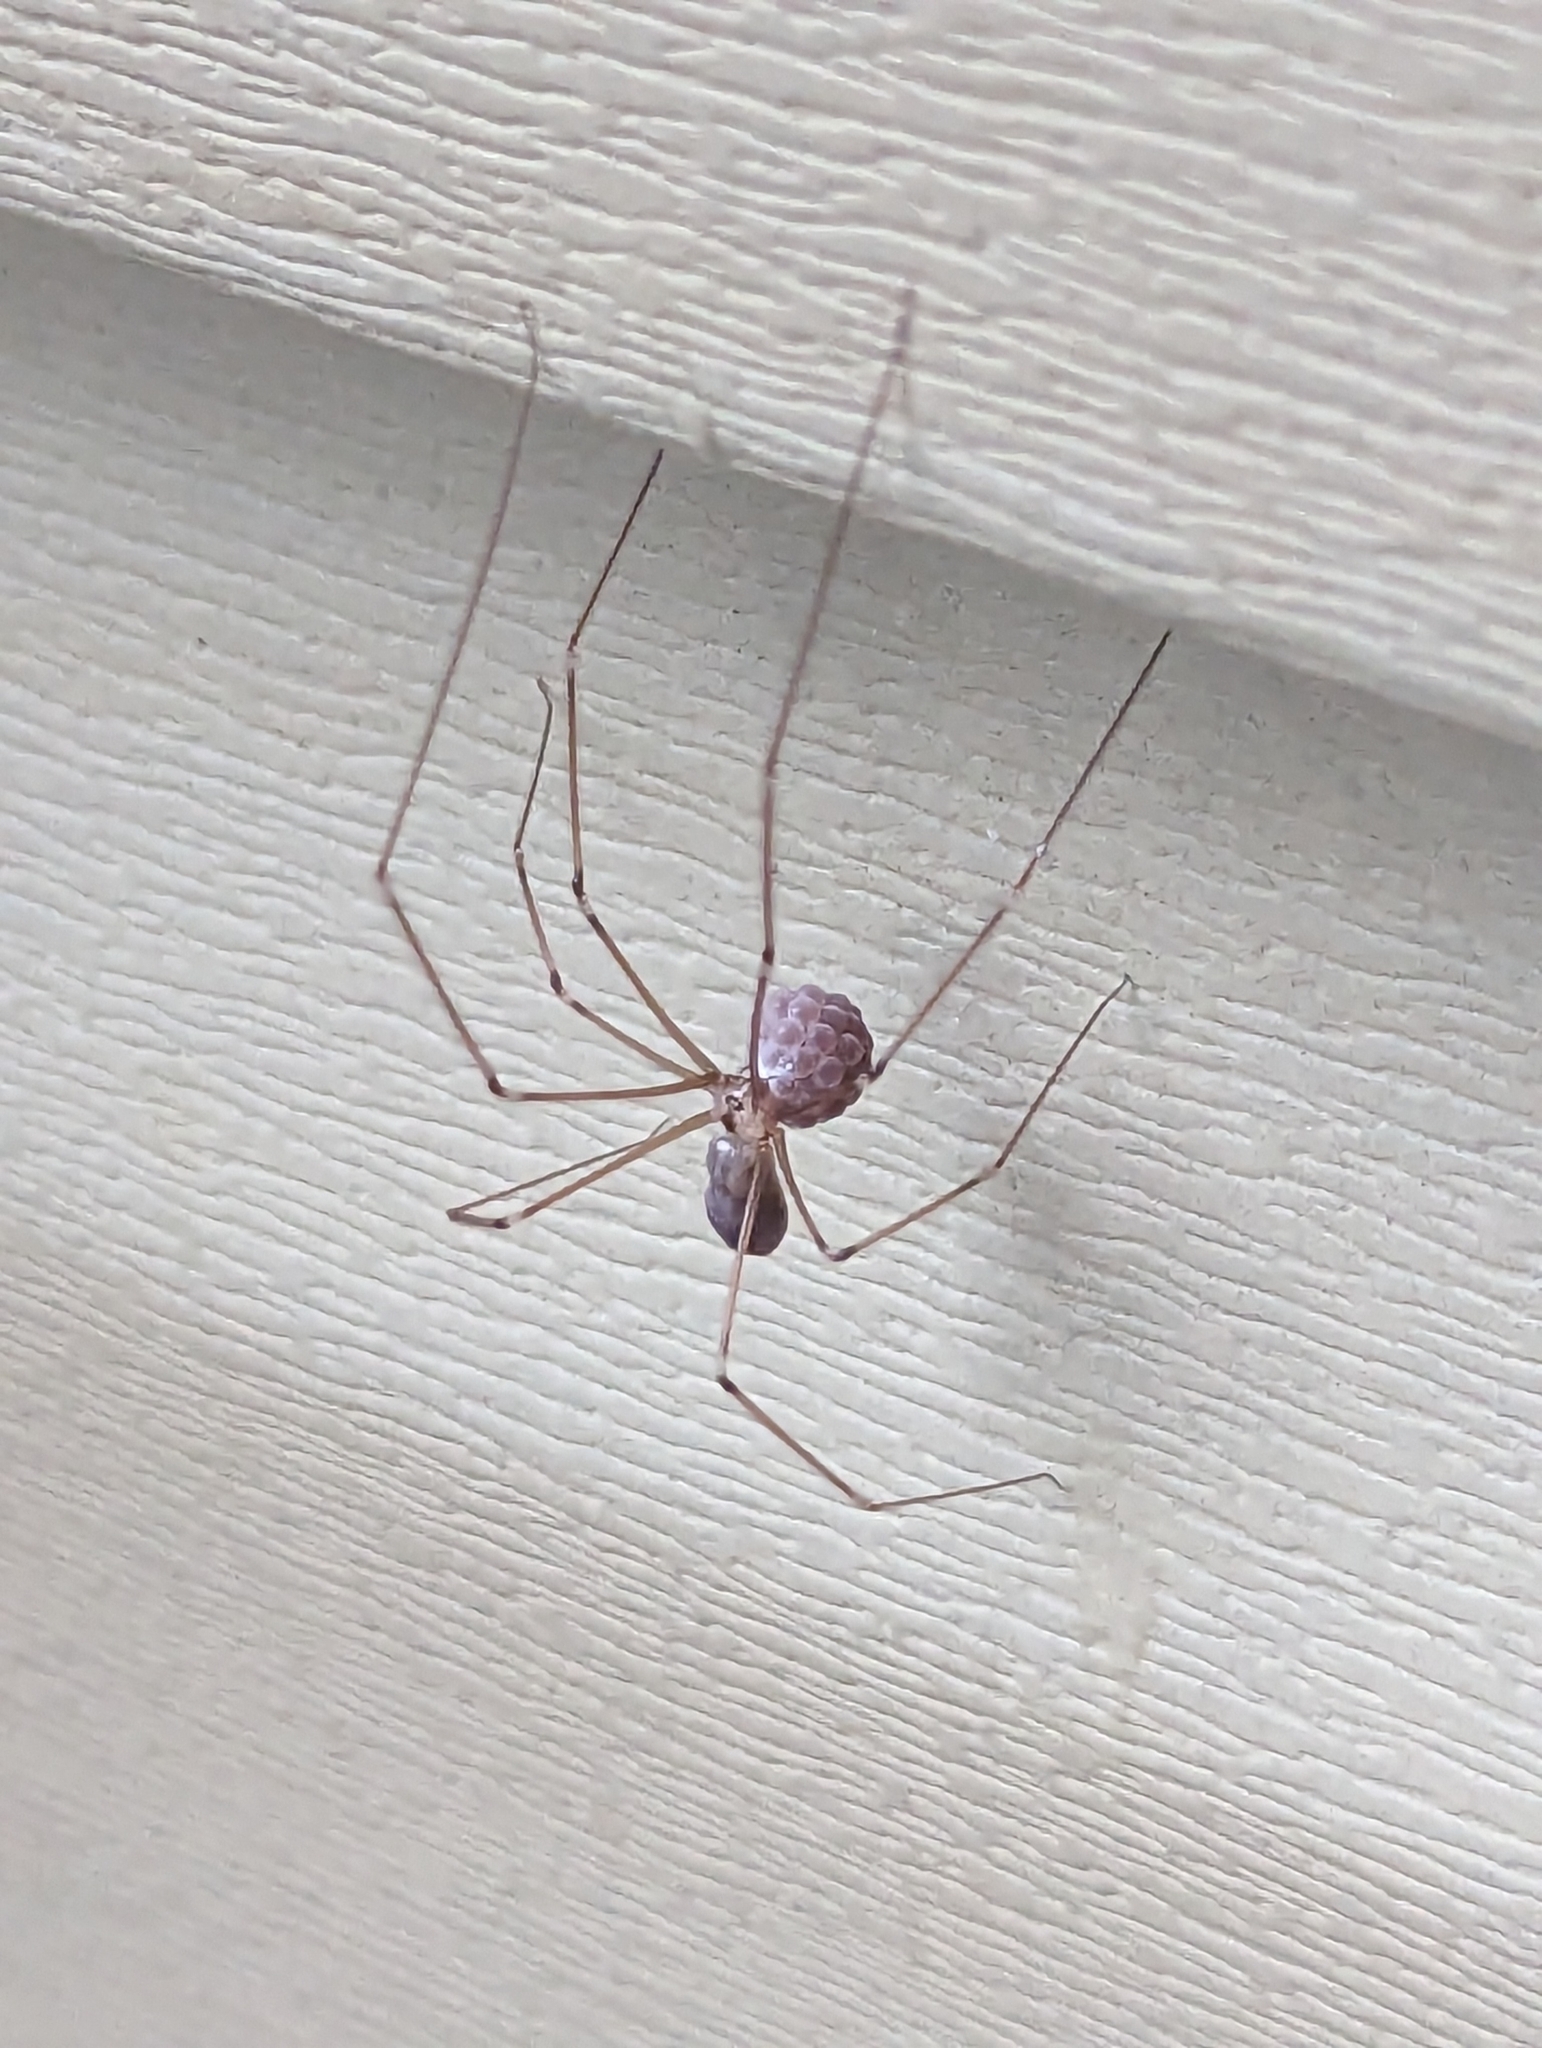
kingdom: Animalia
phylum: Arthropoda
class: Arachnida
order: Araneae
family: Pholcidae
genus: Pholcus
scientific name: Pholcus phalangioides
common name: Longbodied cellar spider
